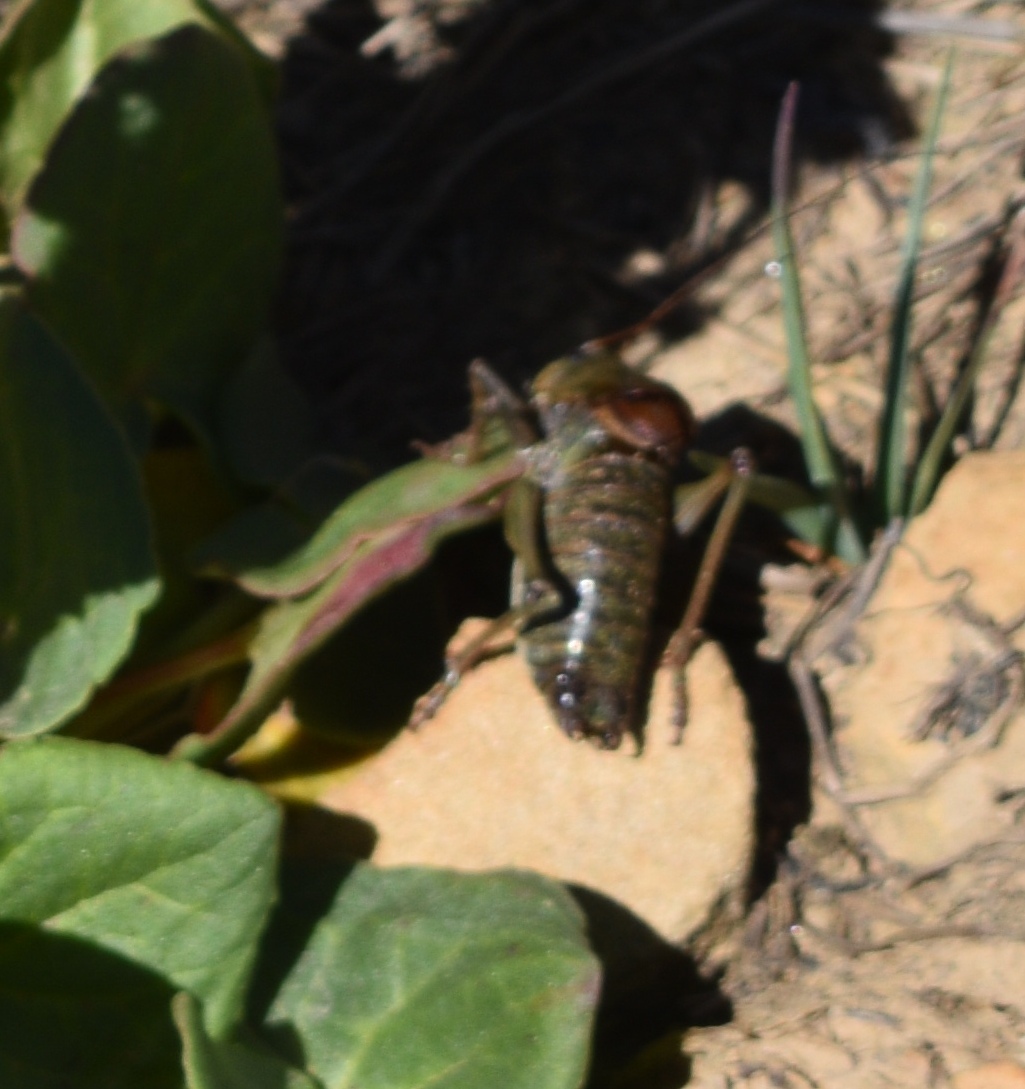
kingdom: Animalia
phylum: Arthropoda
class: Insecta
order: Orthoptera
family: Tettigoniidae
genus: Anabrus
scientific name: Anabrus simplex
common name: Mormon cricket
